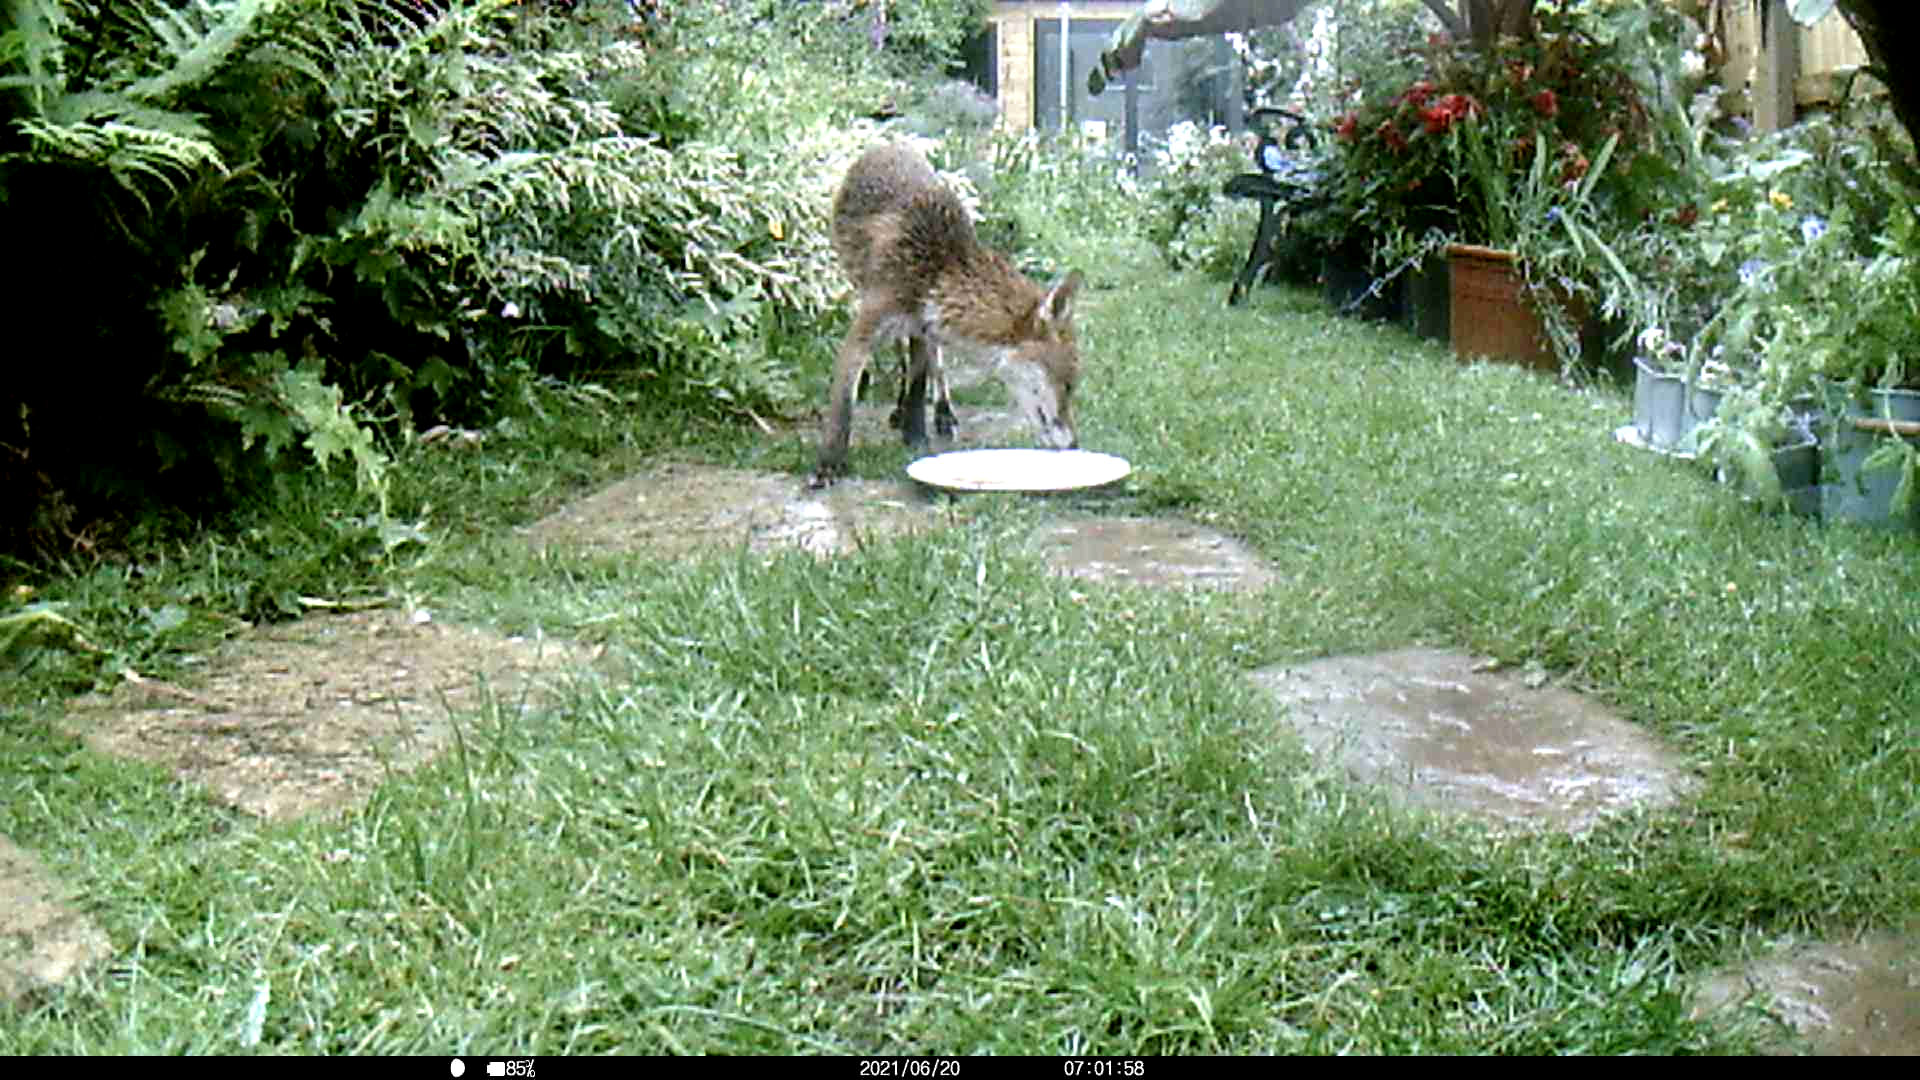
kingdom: Animalia
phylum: Chordata
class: Mammalia
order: Carnivora
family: Canidae
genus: Vulpes
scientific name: Vulpes vulpes
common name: Red fox
